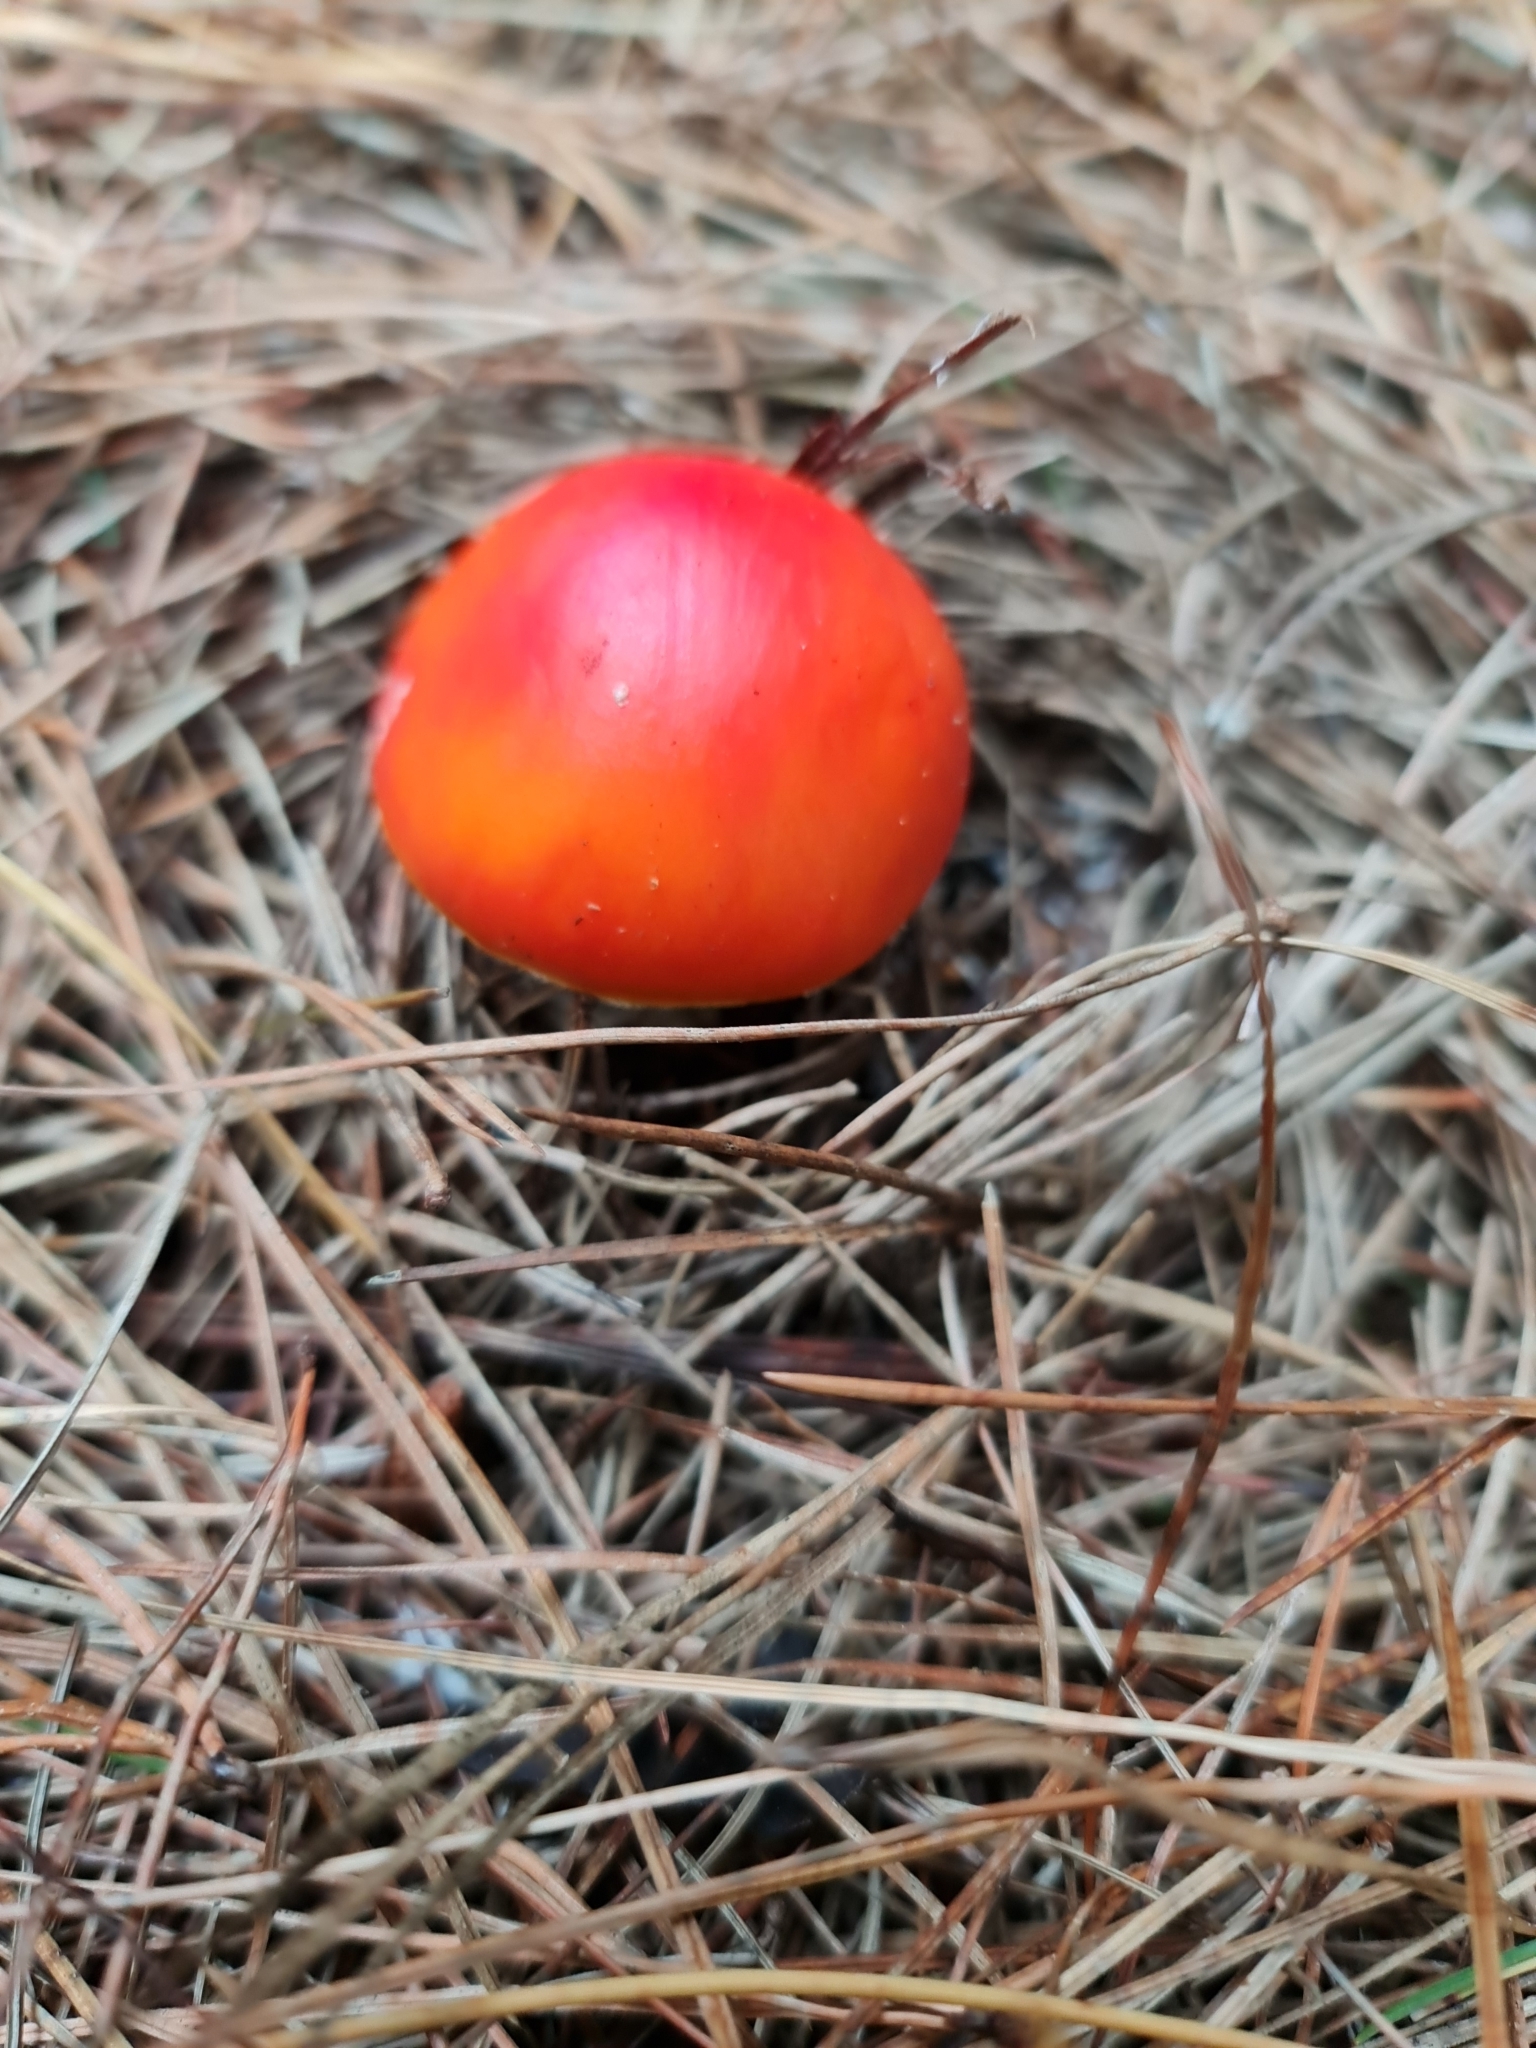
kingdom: Fungi
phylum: Basidiomycota
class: Agaricomycetes
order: Agaricales
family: Amanitaceae
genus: Amanita
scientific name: Amanita muscaria
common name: Fly agaric
